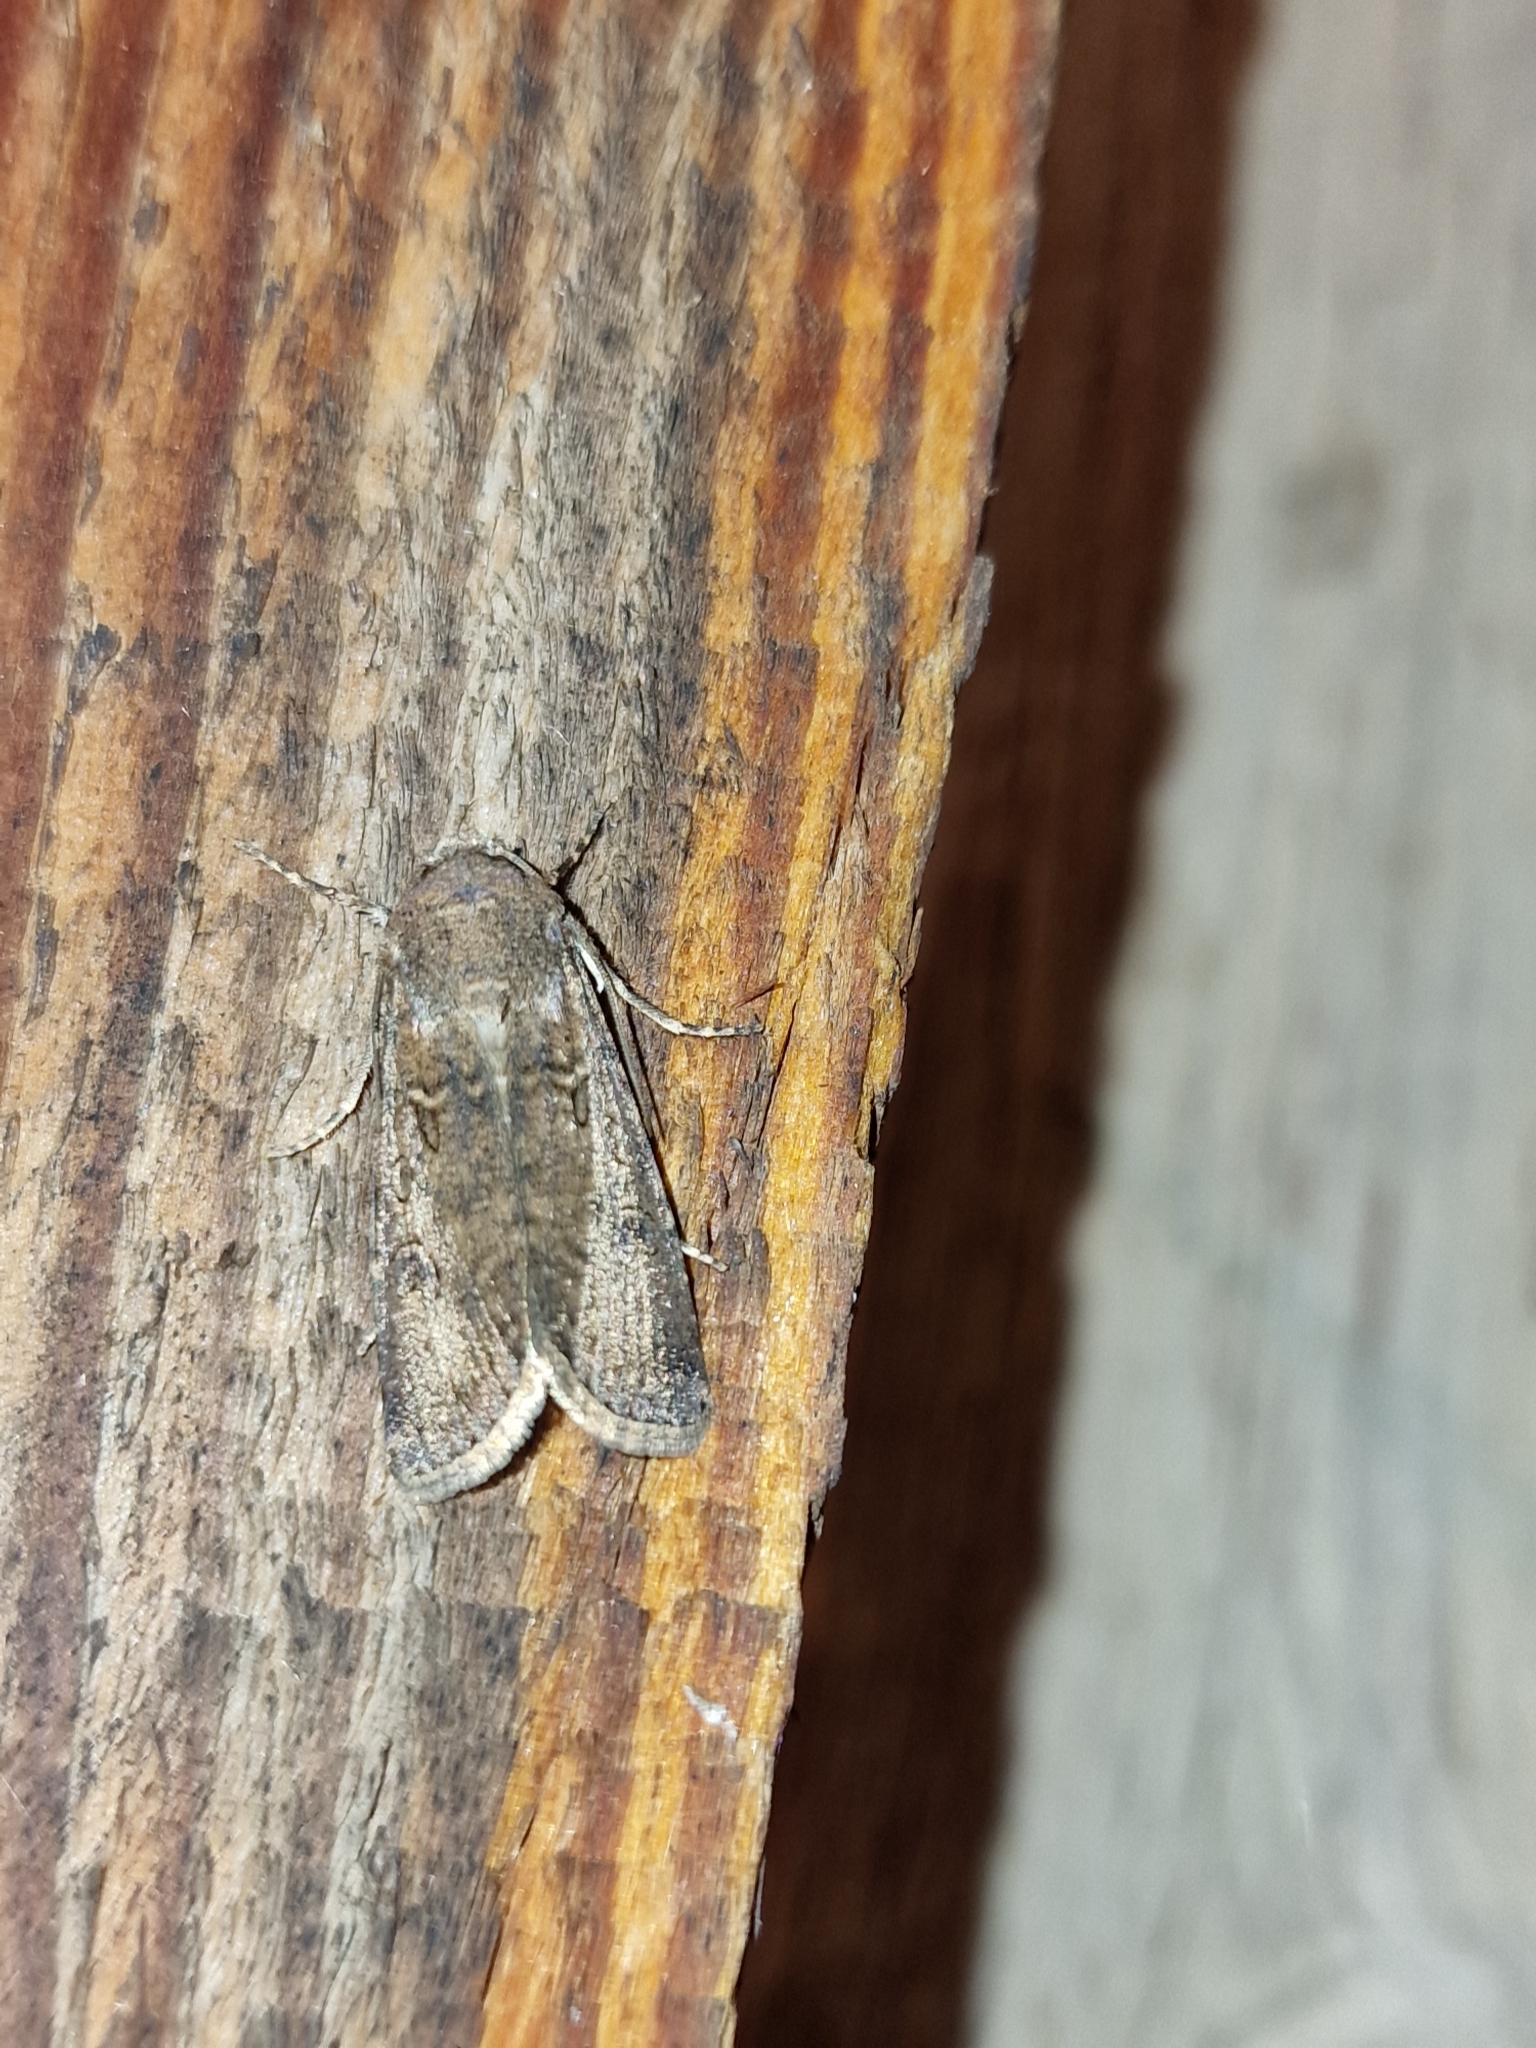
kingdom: Animalia
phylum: Arthropoda
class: Insecta
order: Lepidoptera
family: Noctuidae
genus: Agrotis
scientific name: Agrotis segetum
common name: Turnip moth
